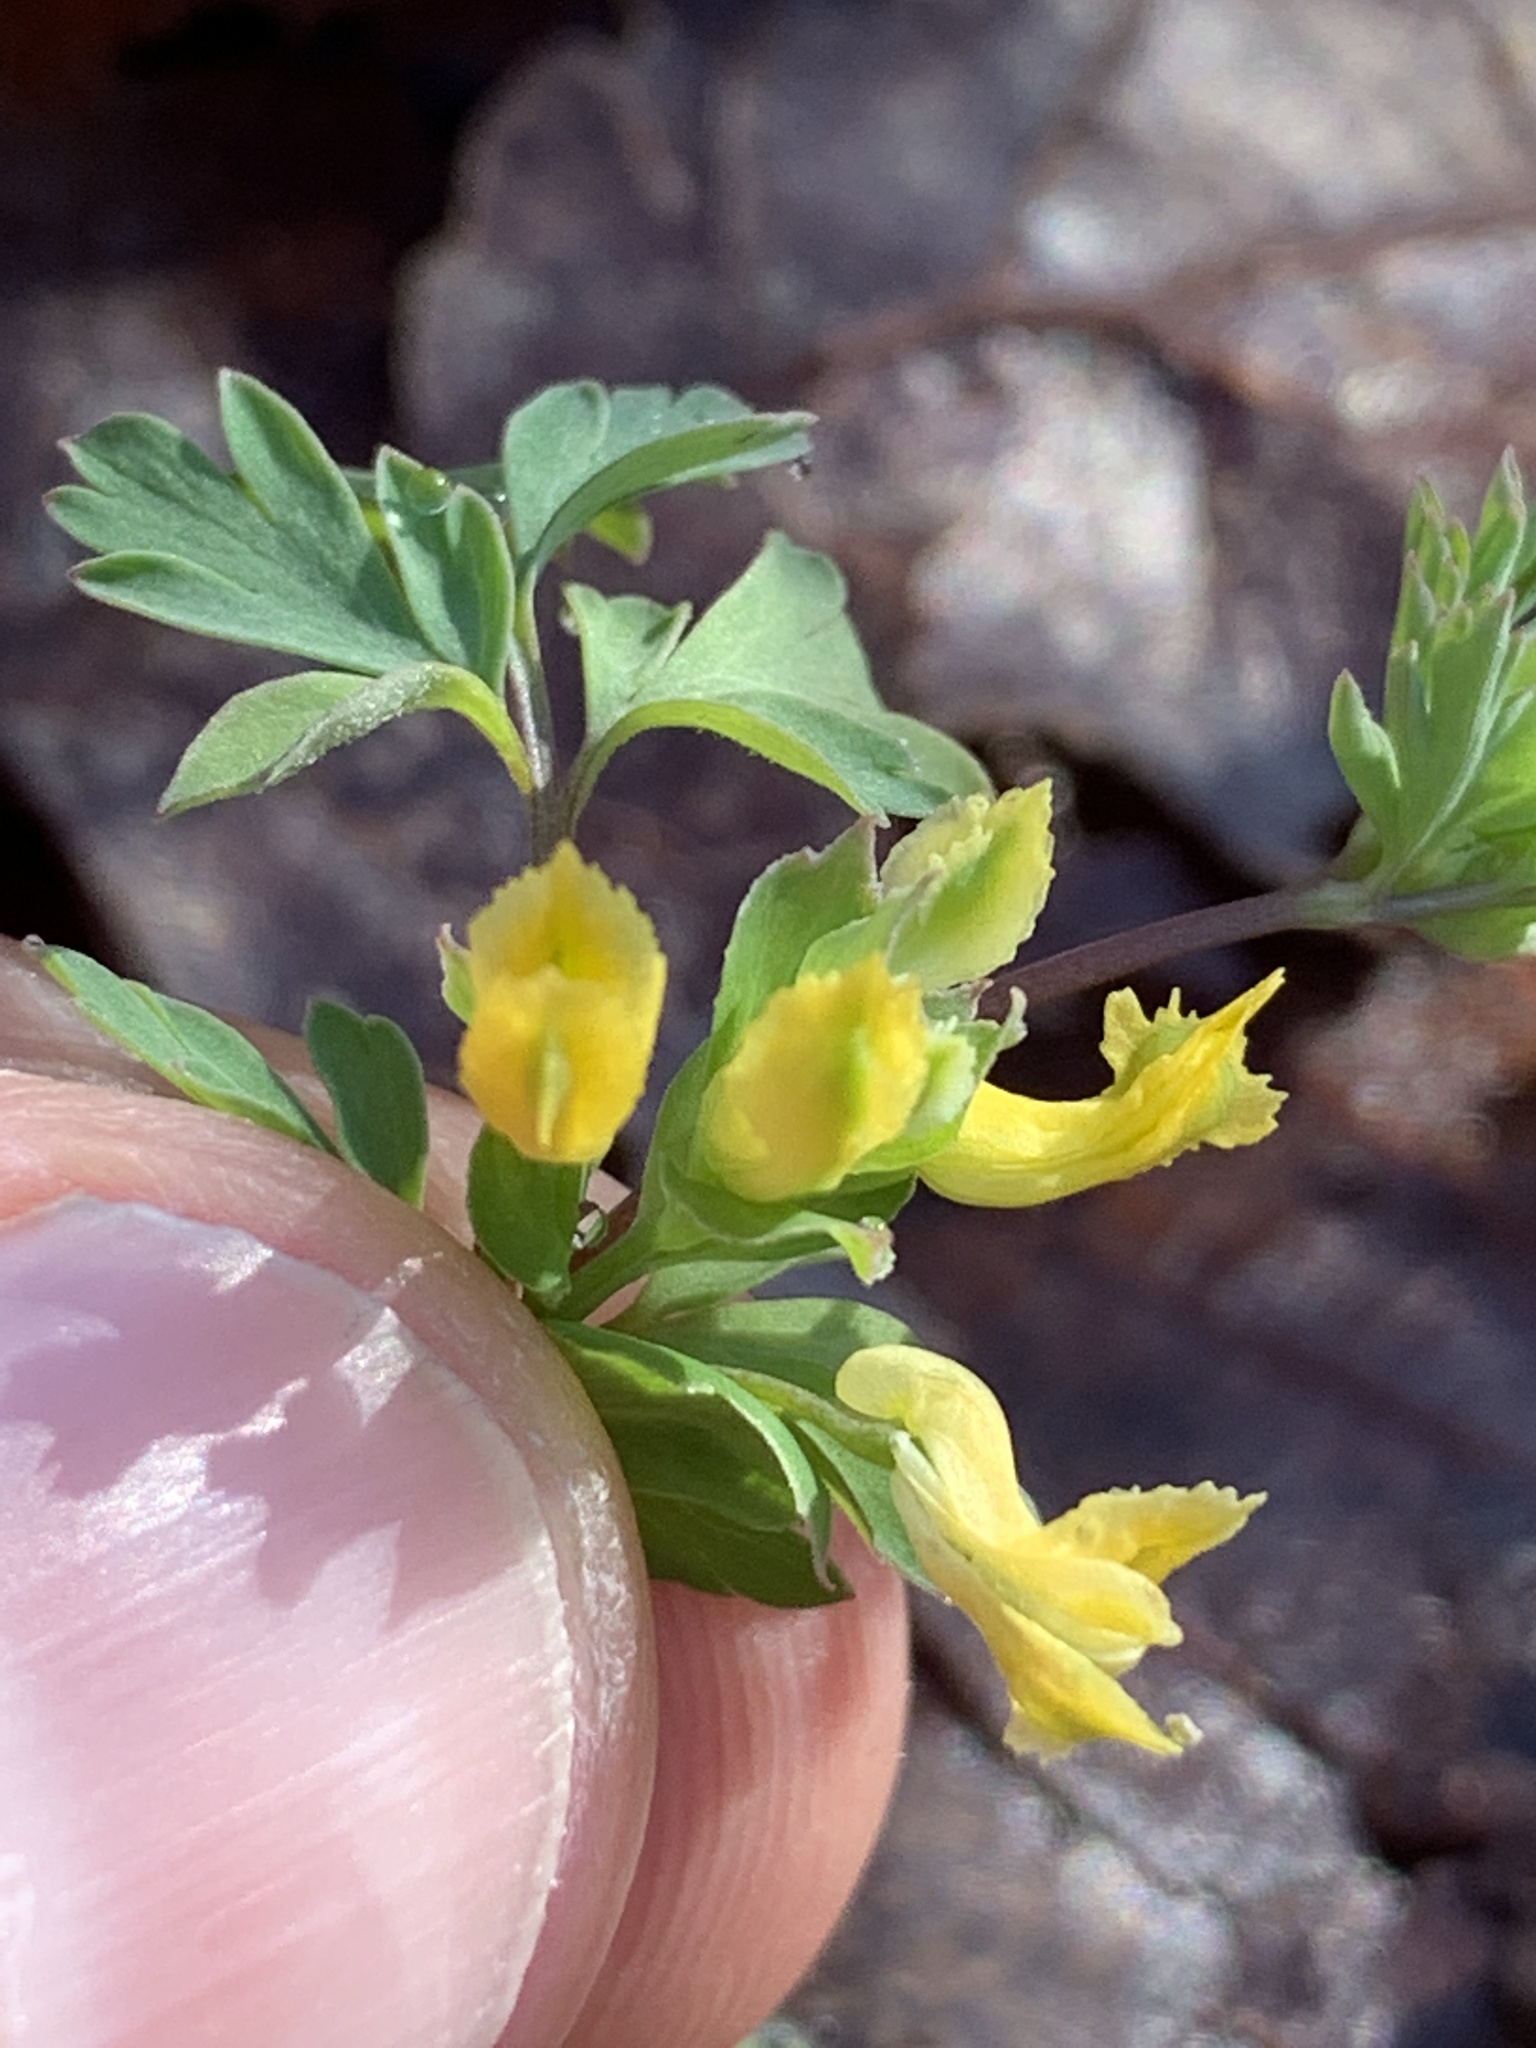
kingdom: Plantae
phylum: Tracheophyta
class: Magnoliopsida
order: Ranunculales
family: Papaveraceae
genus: Corydalis
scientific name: Corydalis flavula
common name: Yellow corydalis
